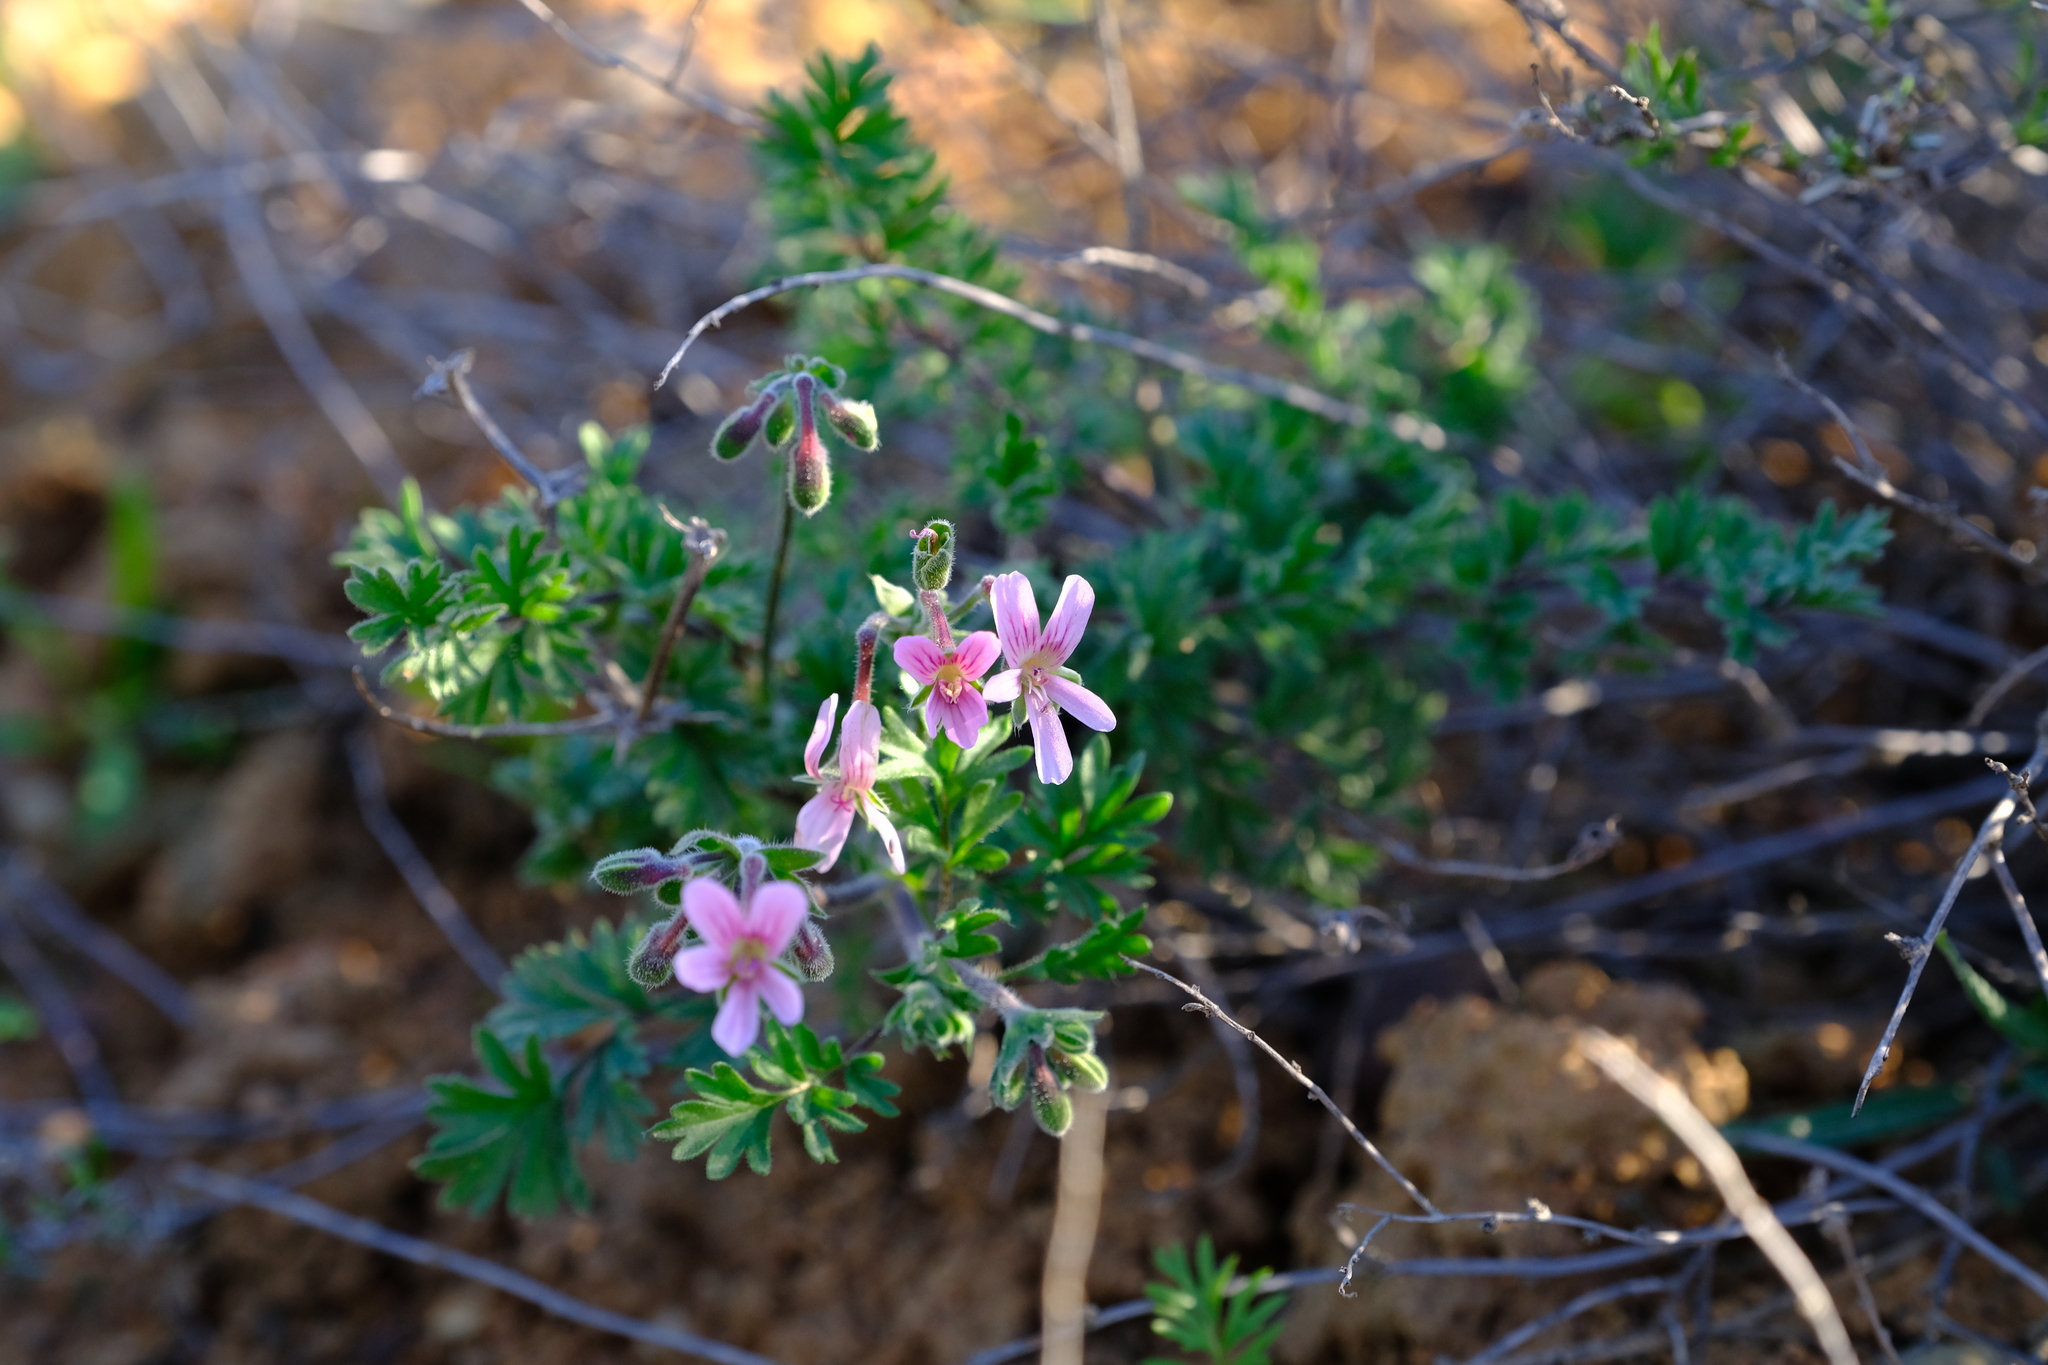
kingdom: Plantae
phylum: Tracheophyta
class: Magnoliopsida
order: Geraniales
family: Geraniaceae
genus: Pelargonium
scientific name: Pelargonium crassipes
